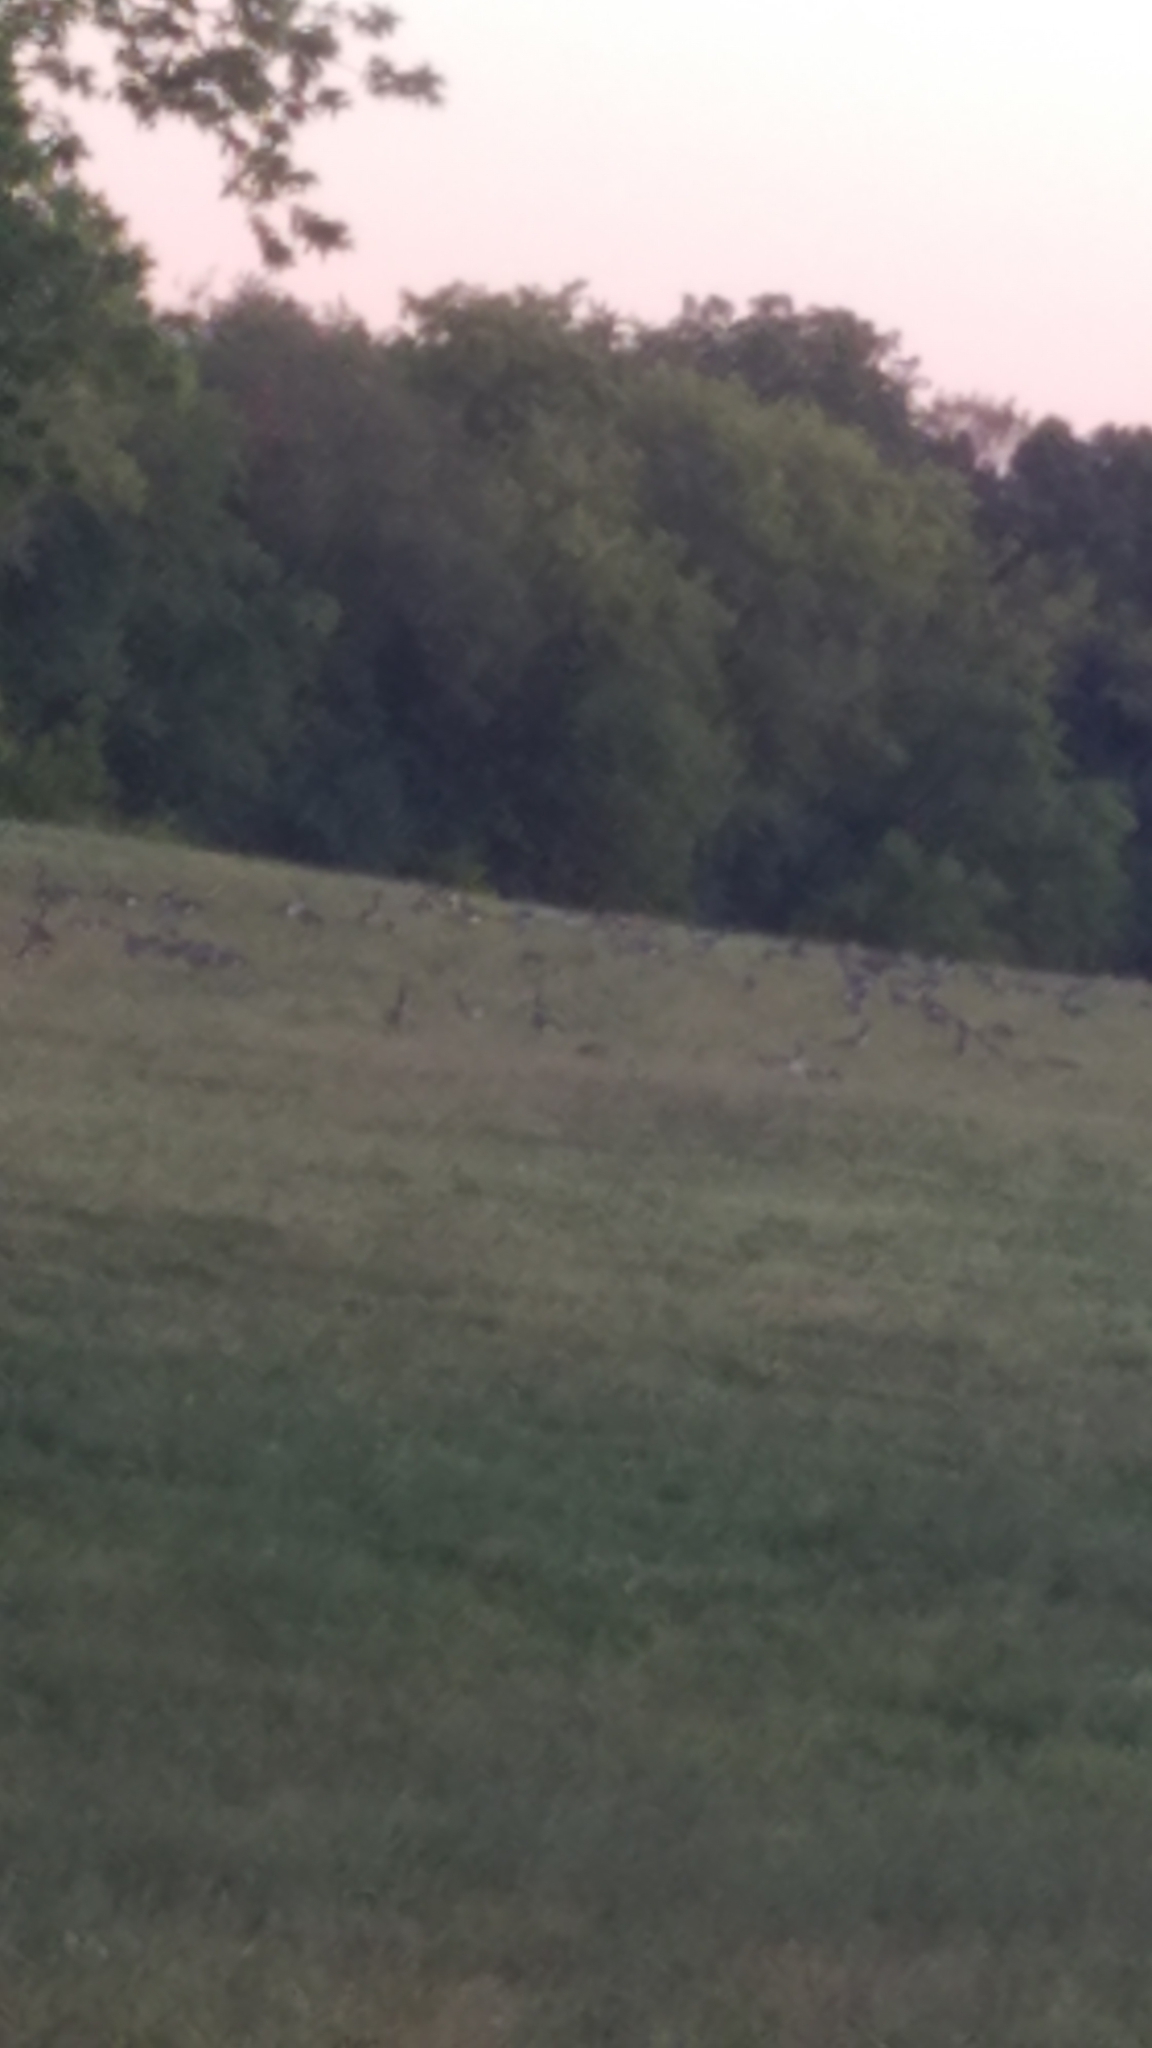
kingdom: Animalia
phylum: Chordata
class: Aves
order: Anseriformes
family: Anatidae
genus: Branta
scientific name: Branta canadensis
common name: Canada goose
